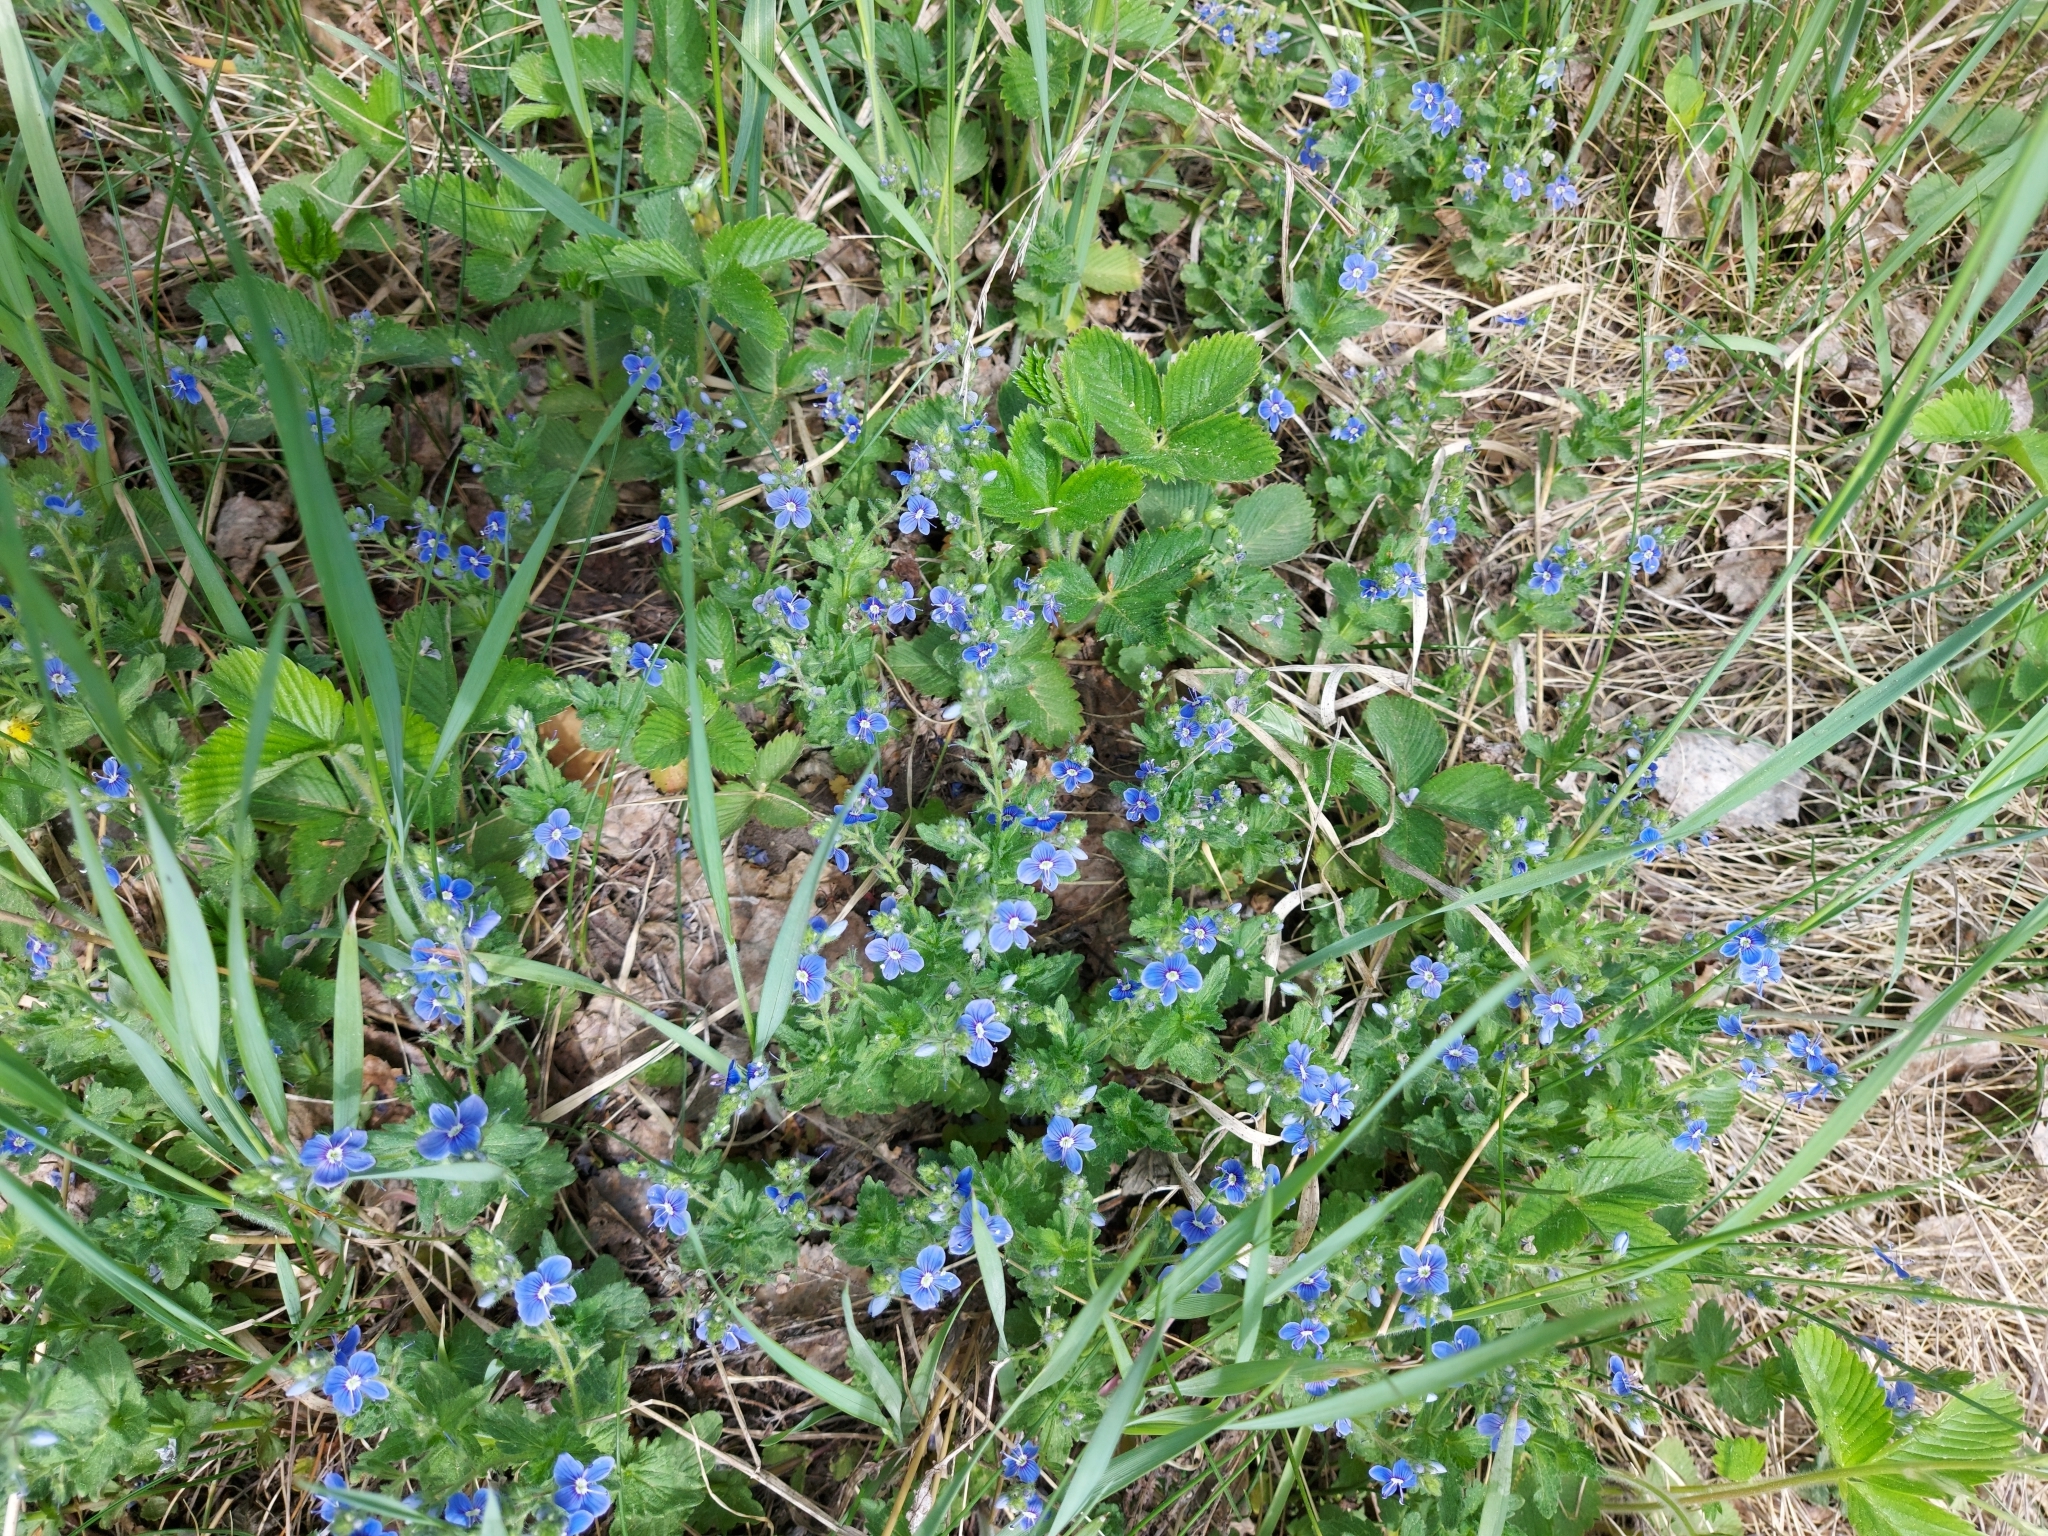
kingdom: Plantae
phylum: Tracheophyta
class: Magnoliopsida
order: Lamiales
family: Plantaginaceae
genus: Veronica
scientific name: Veronica chamaedrys
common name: Germander speedwell
